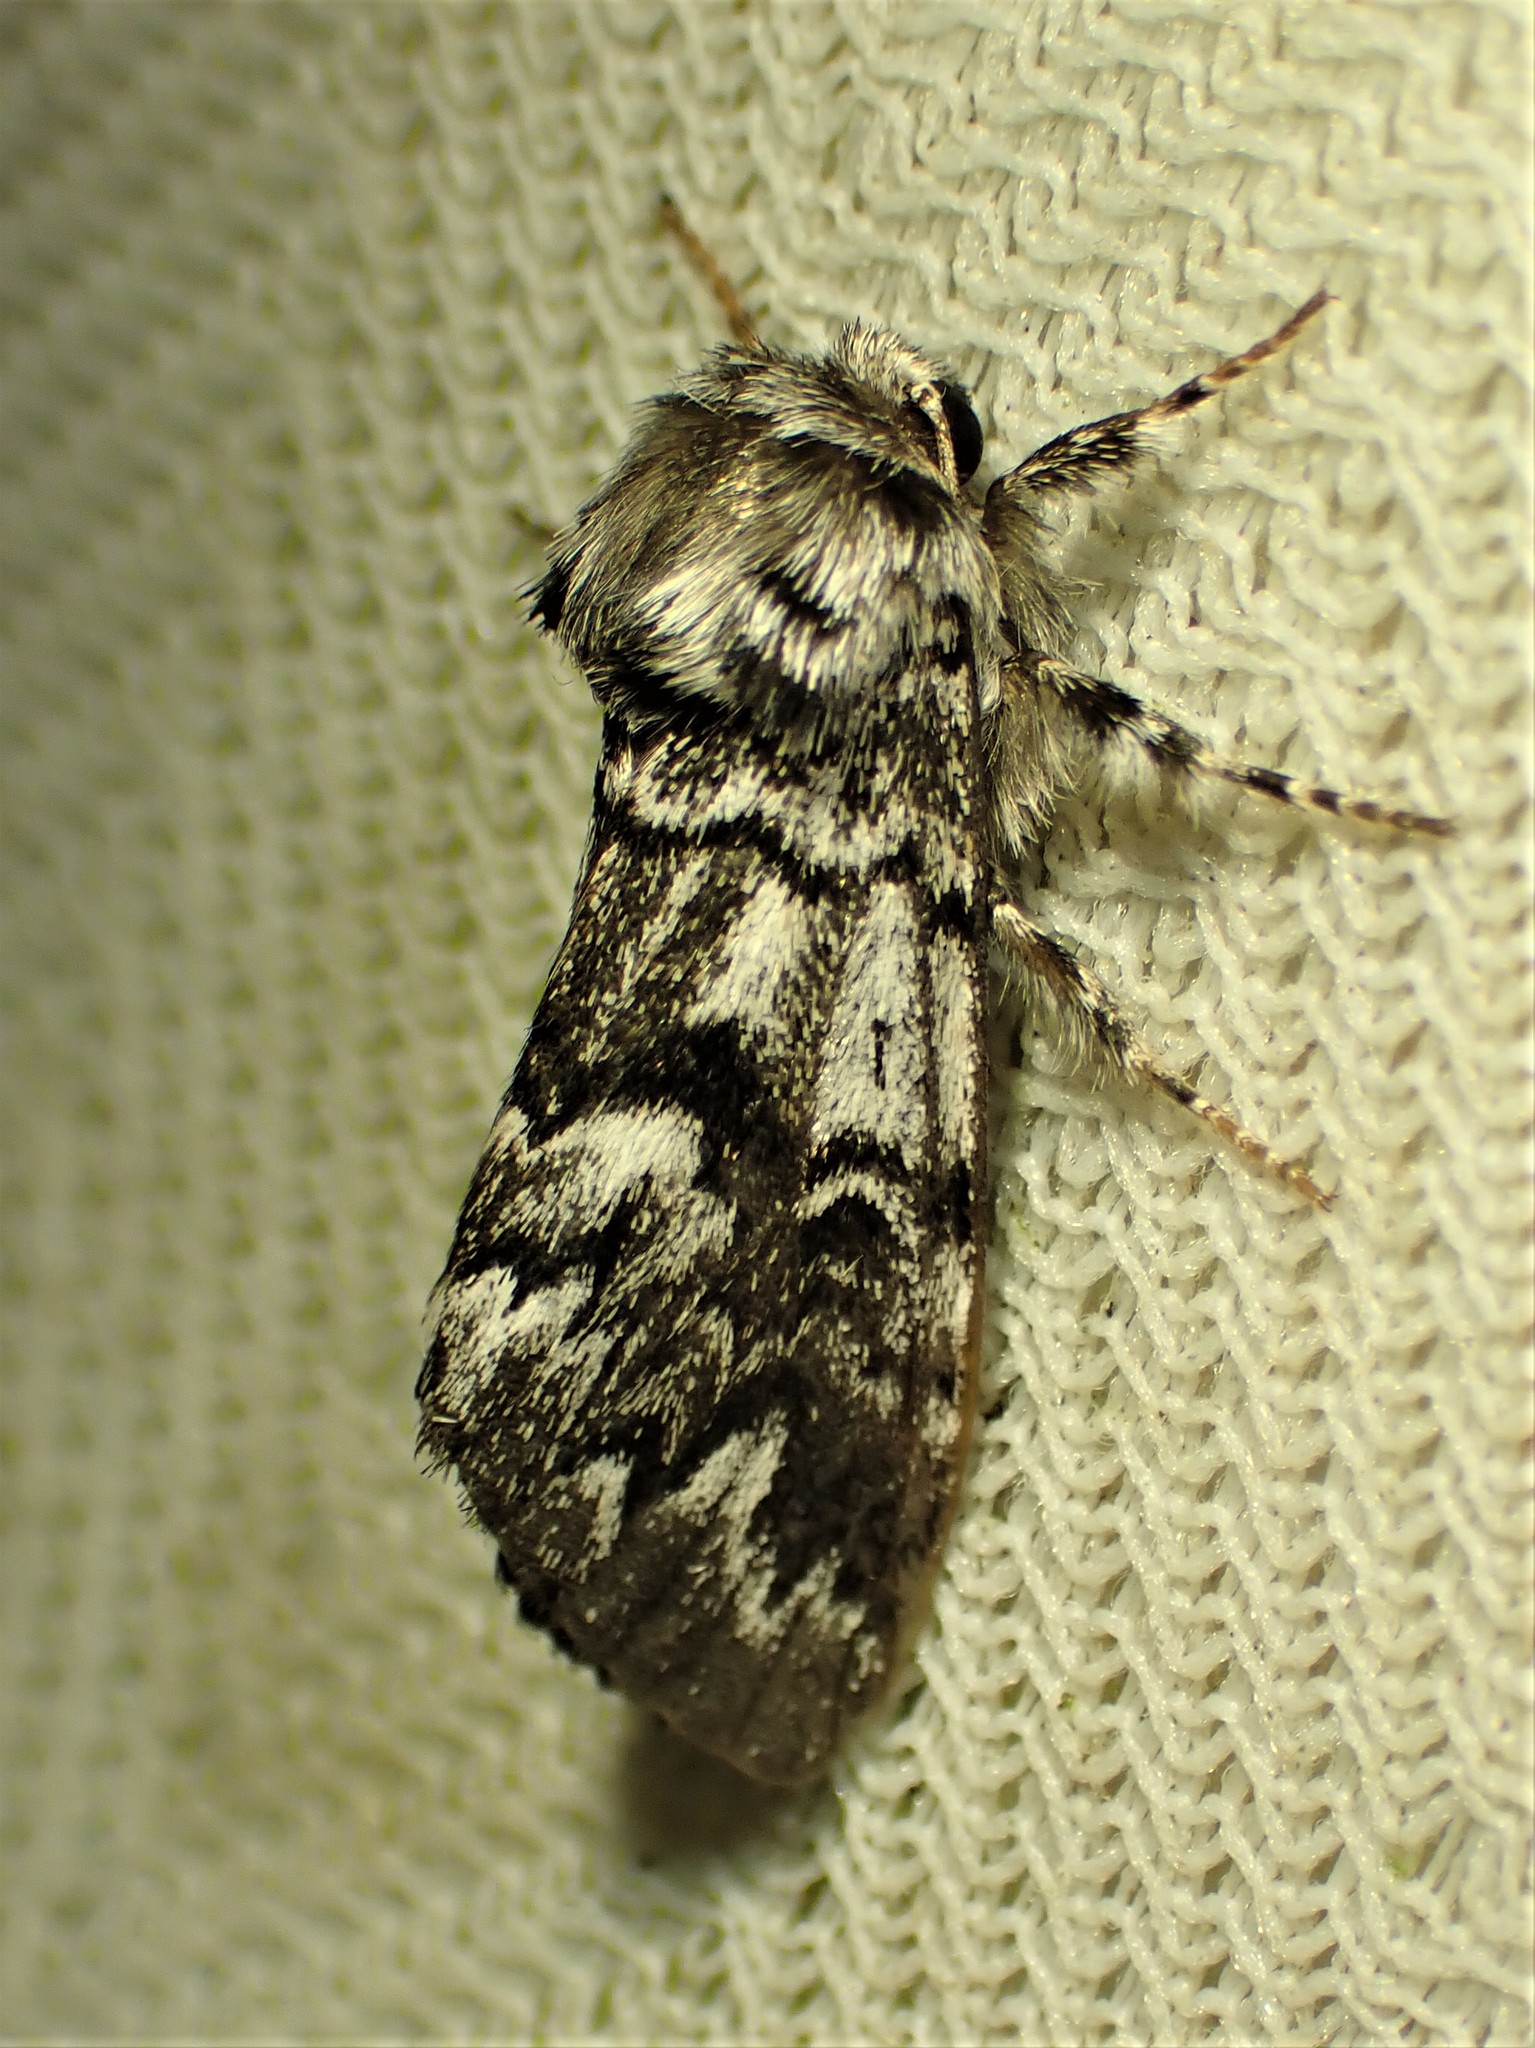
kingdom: Animalia
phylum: Arthropoda
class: Insecta
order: Lepidoptera
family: Noctuidae
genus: Panthea
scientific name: Panthea acronyctoides
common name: Black zigzag moth
